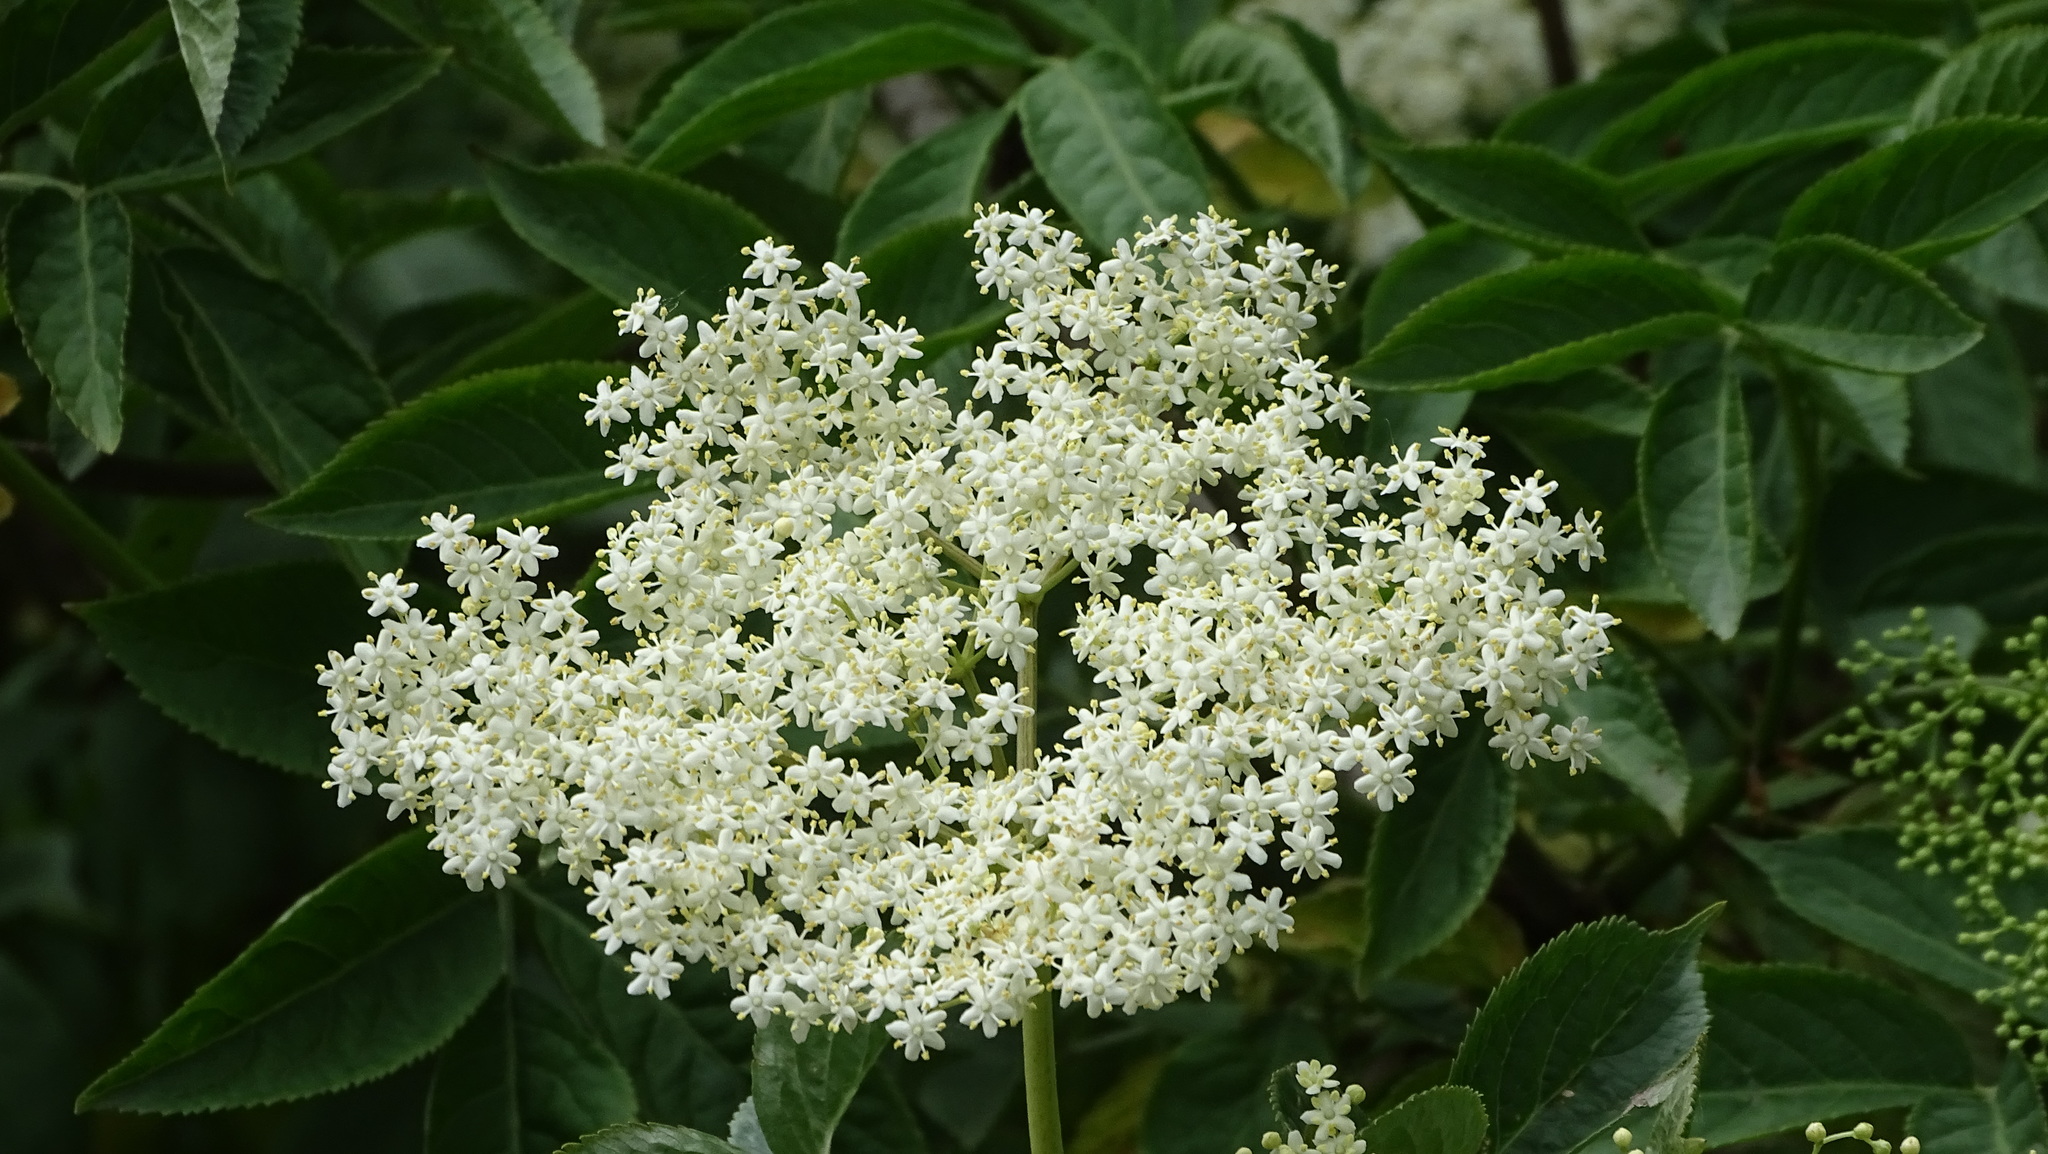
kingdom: Plantae
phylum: Tracheophyta
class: Magnoliopsida
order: Dipsacales
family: Viburnaceae
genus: Sambucus
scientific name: Sambucus nigra
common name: Elder
